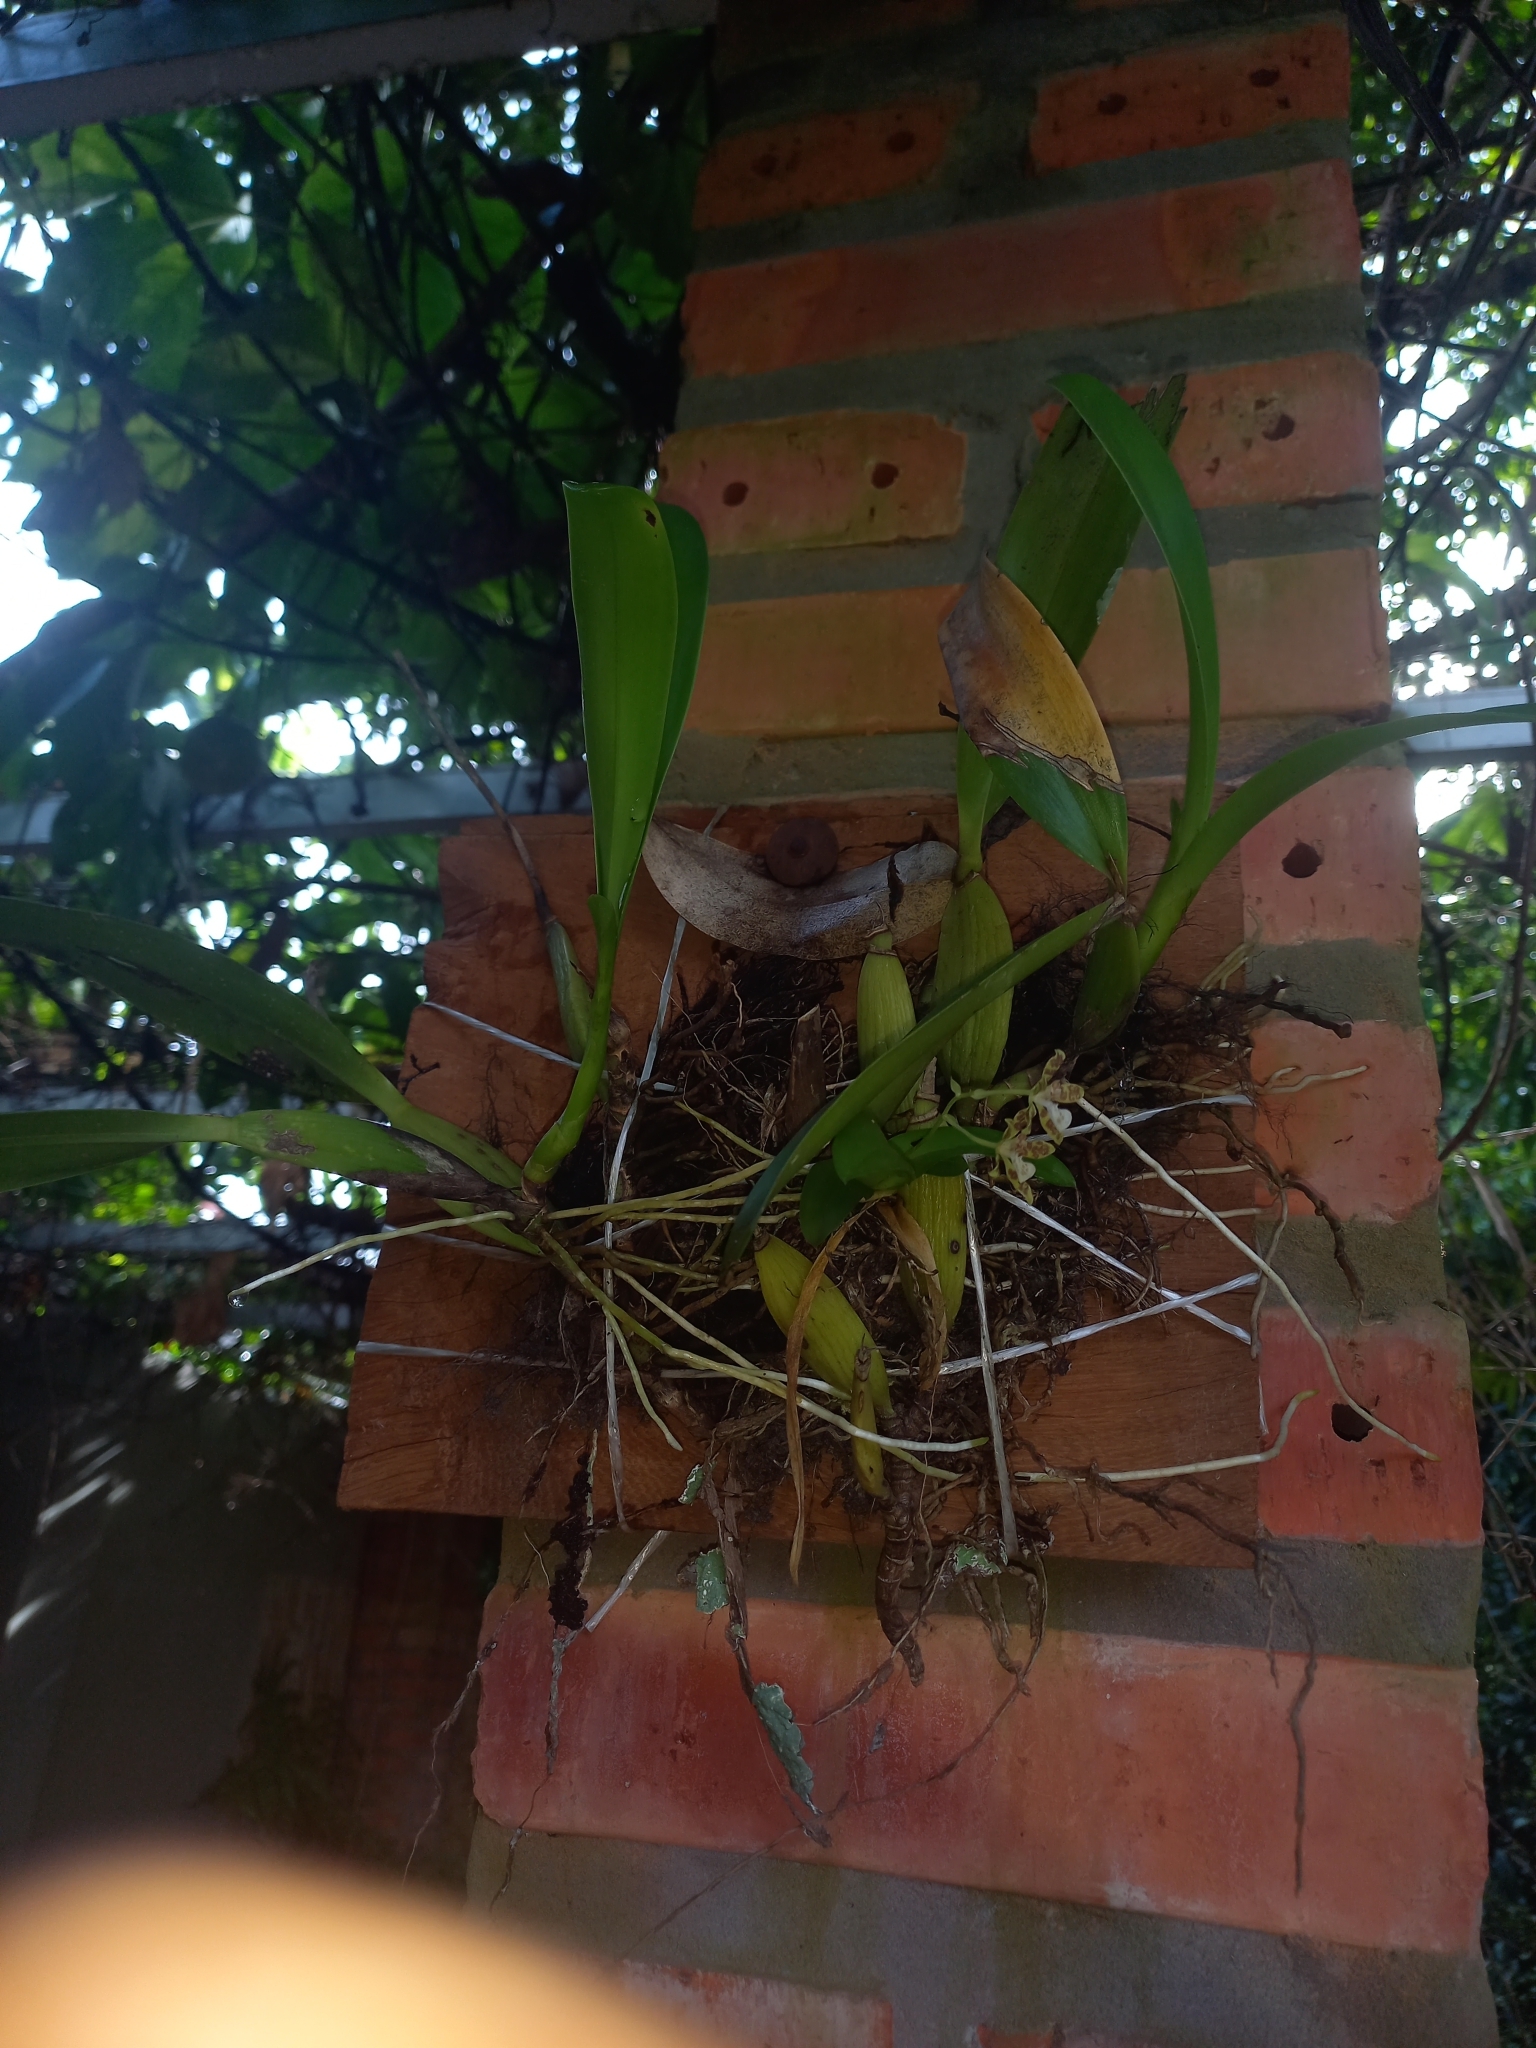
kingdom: Plantae
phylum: Tracheophyta
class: Liliopsida
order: Asparagales
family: Orchidaceae
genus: Solenidium
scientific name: Solenidium lunatum
